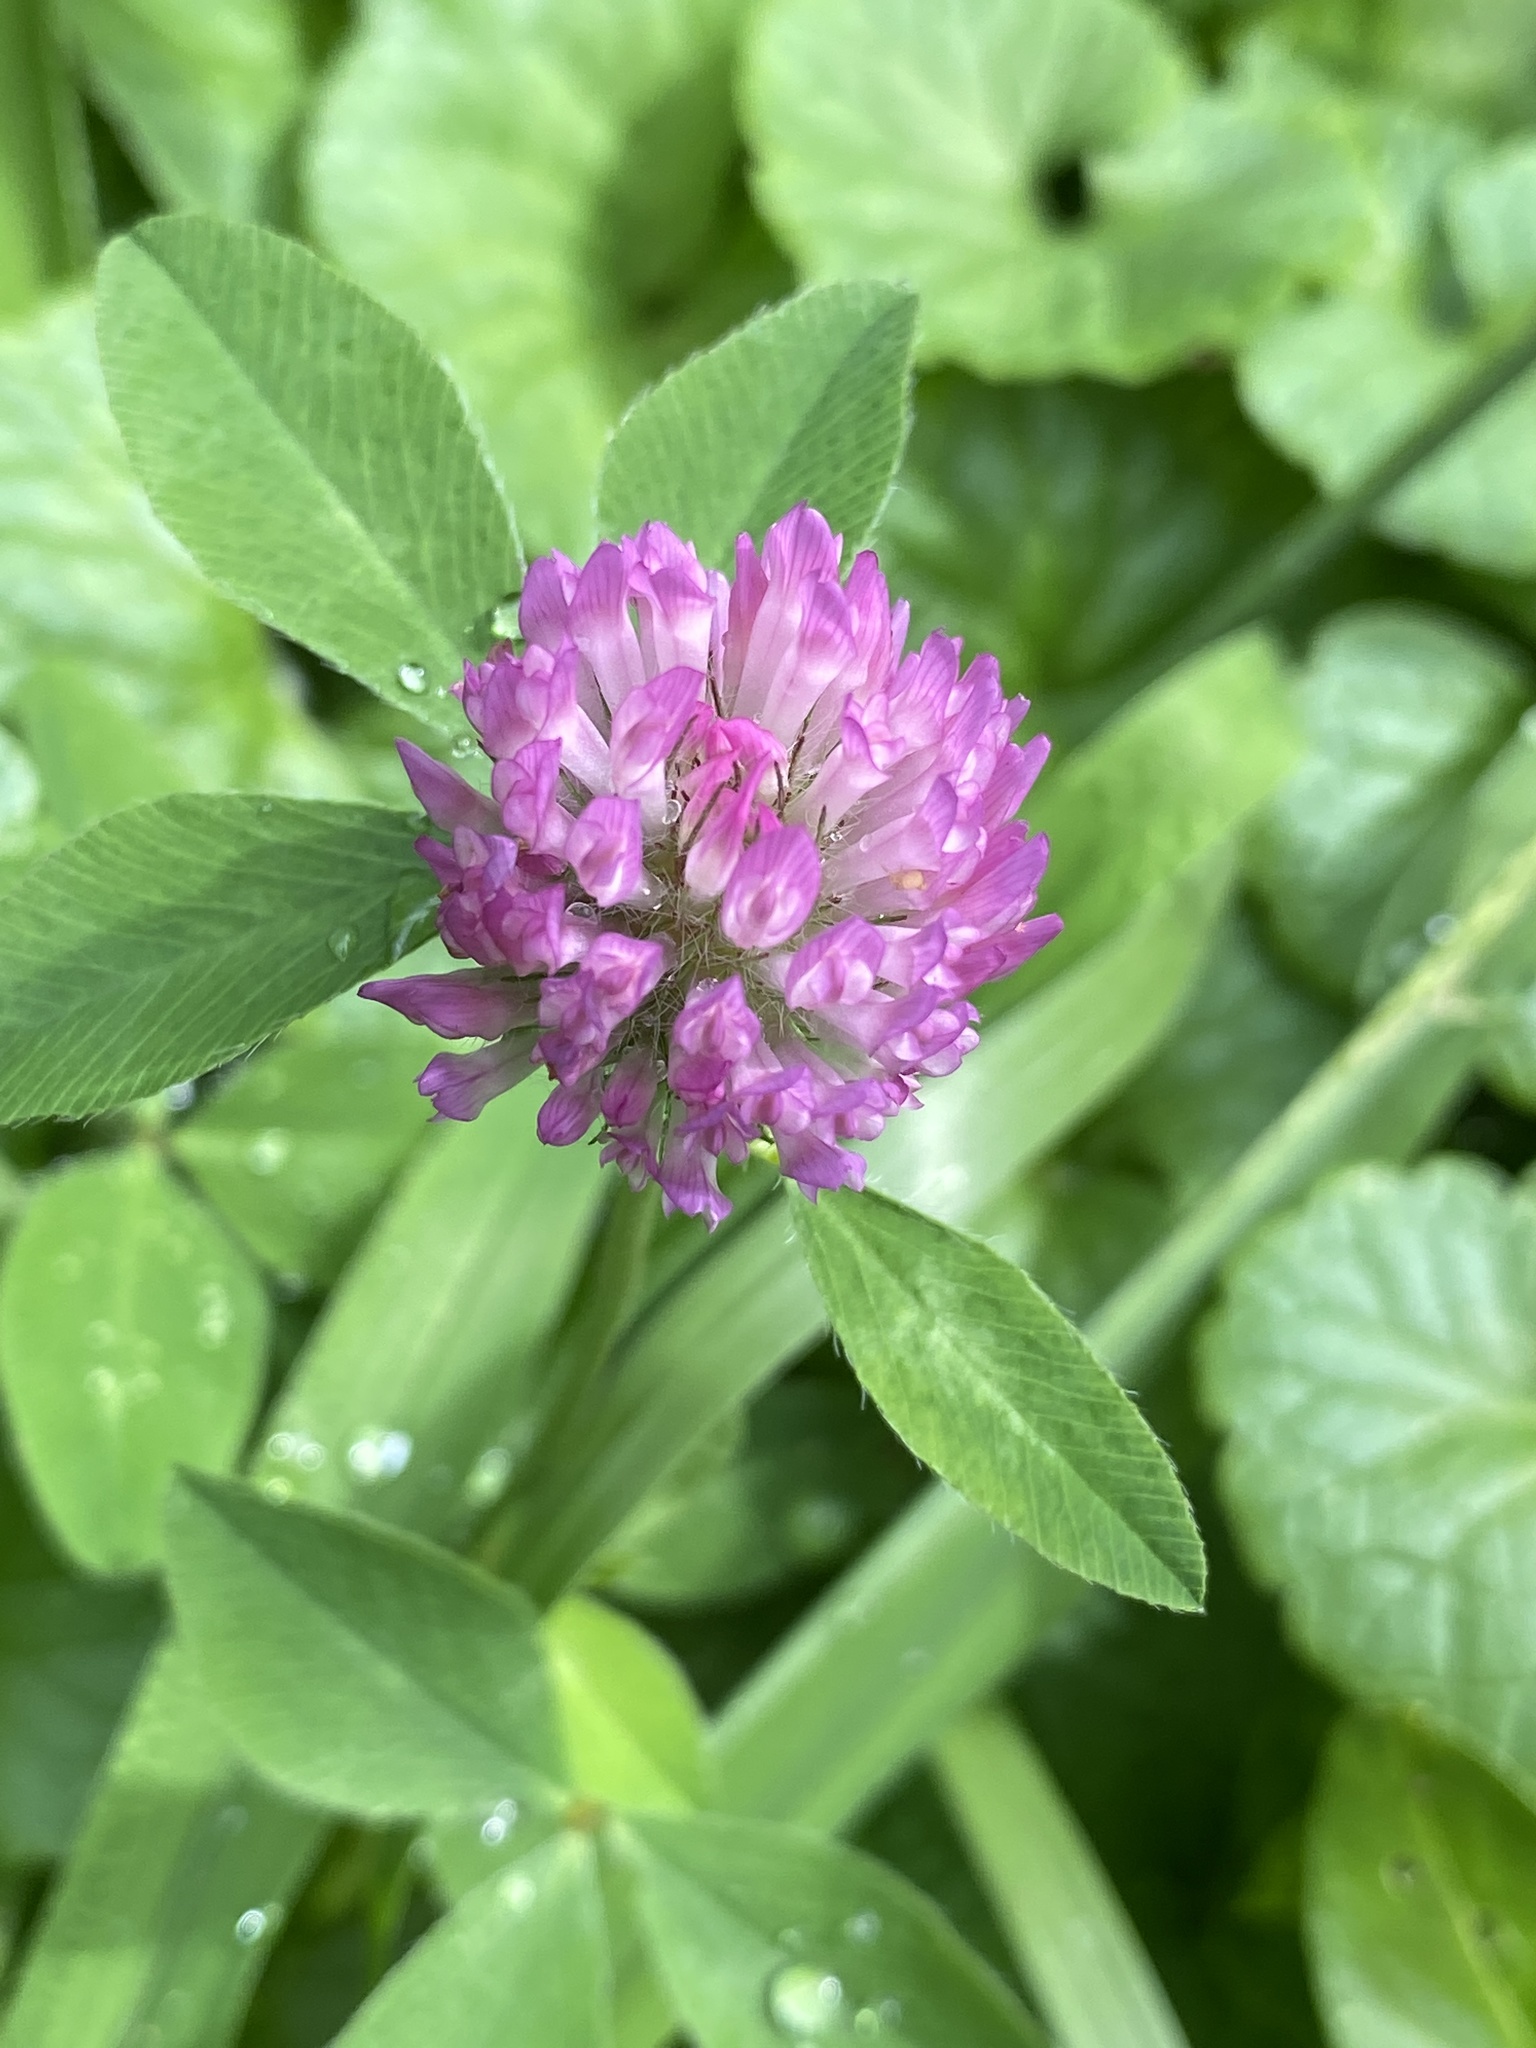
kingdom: Plantae
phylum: Tracheophyta
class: Magnoliopsida
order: Fabales
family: Fabaceae
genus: Trifolium
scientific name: Trifolium pratense
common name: Red clover
